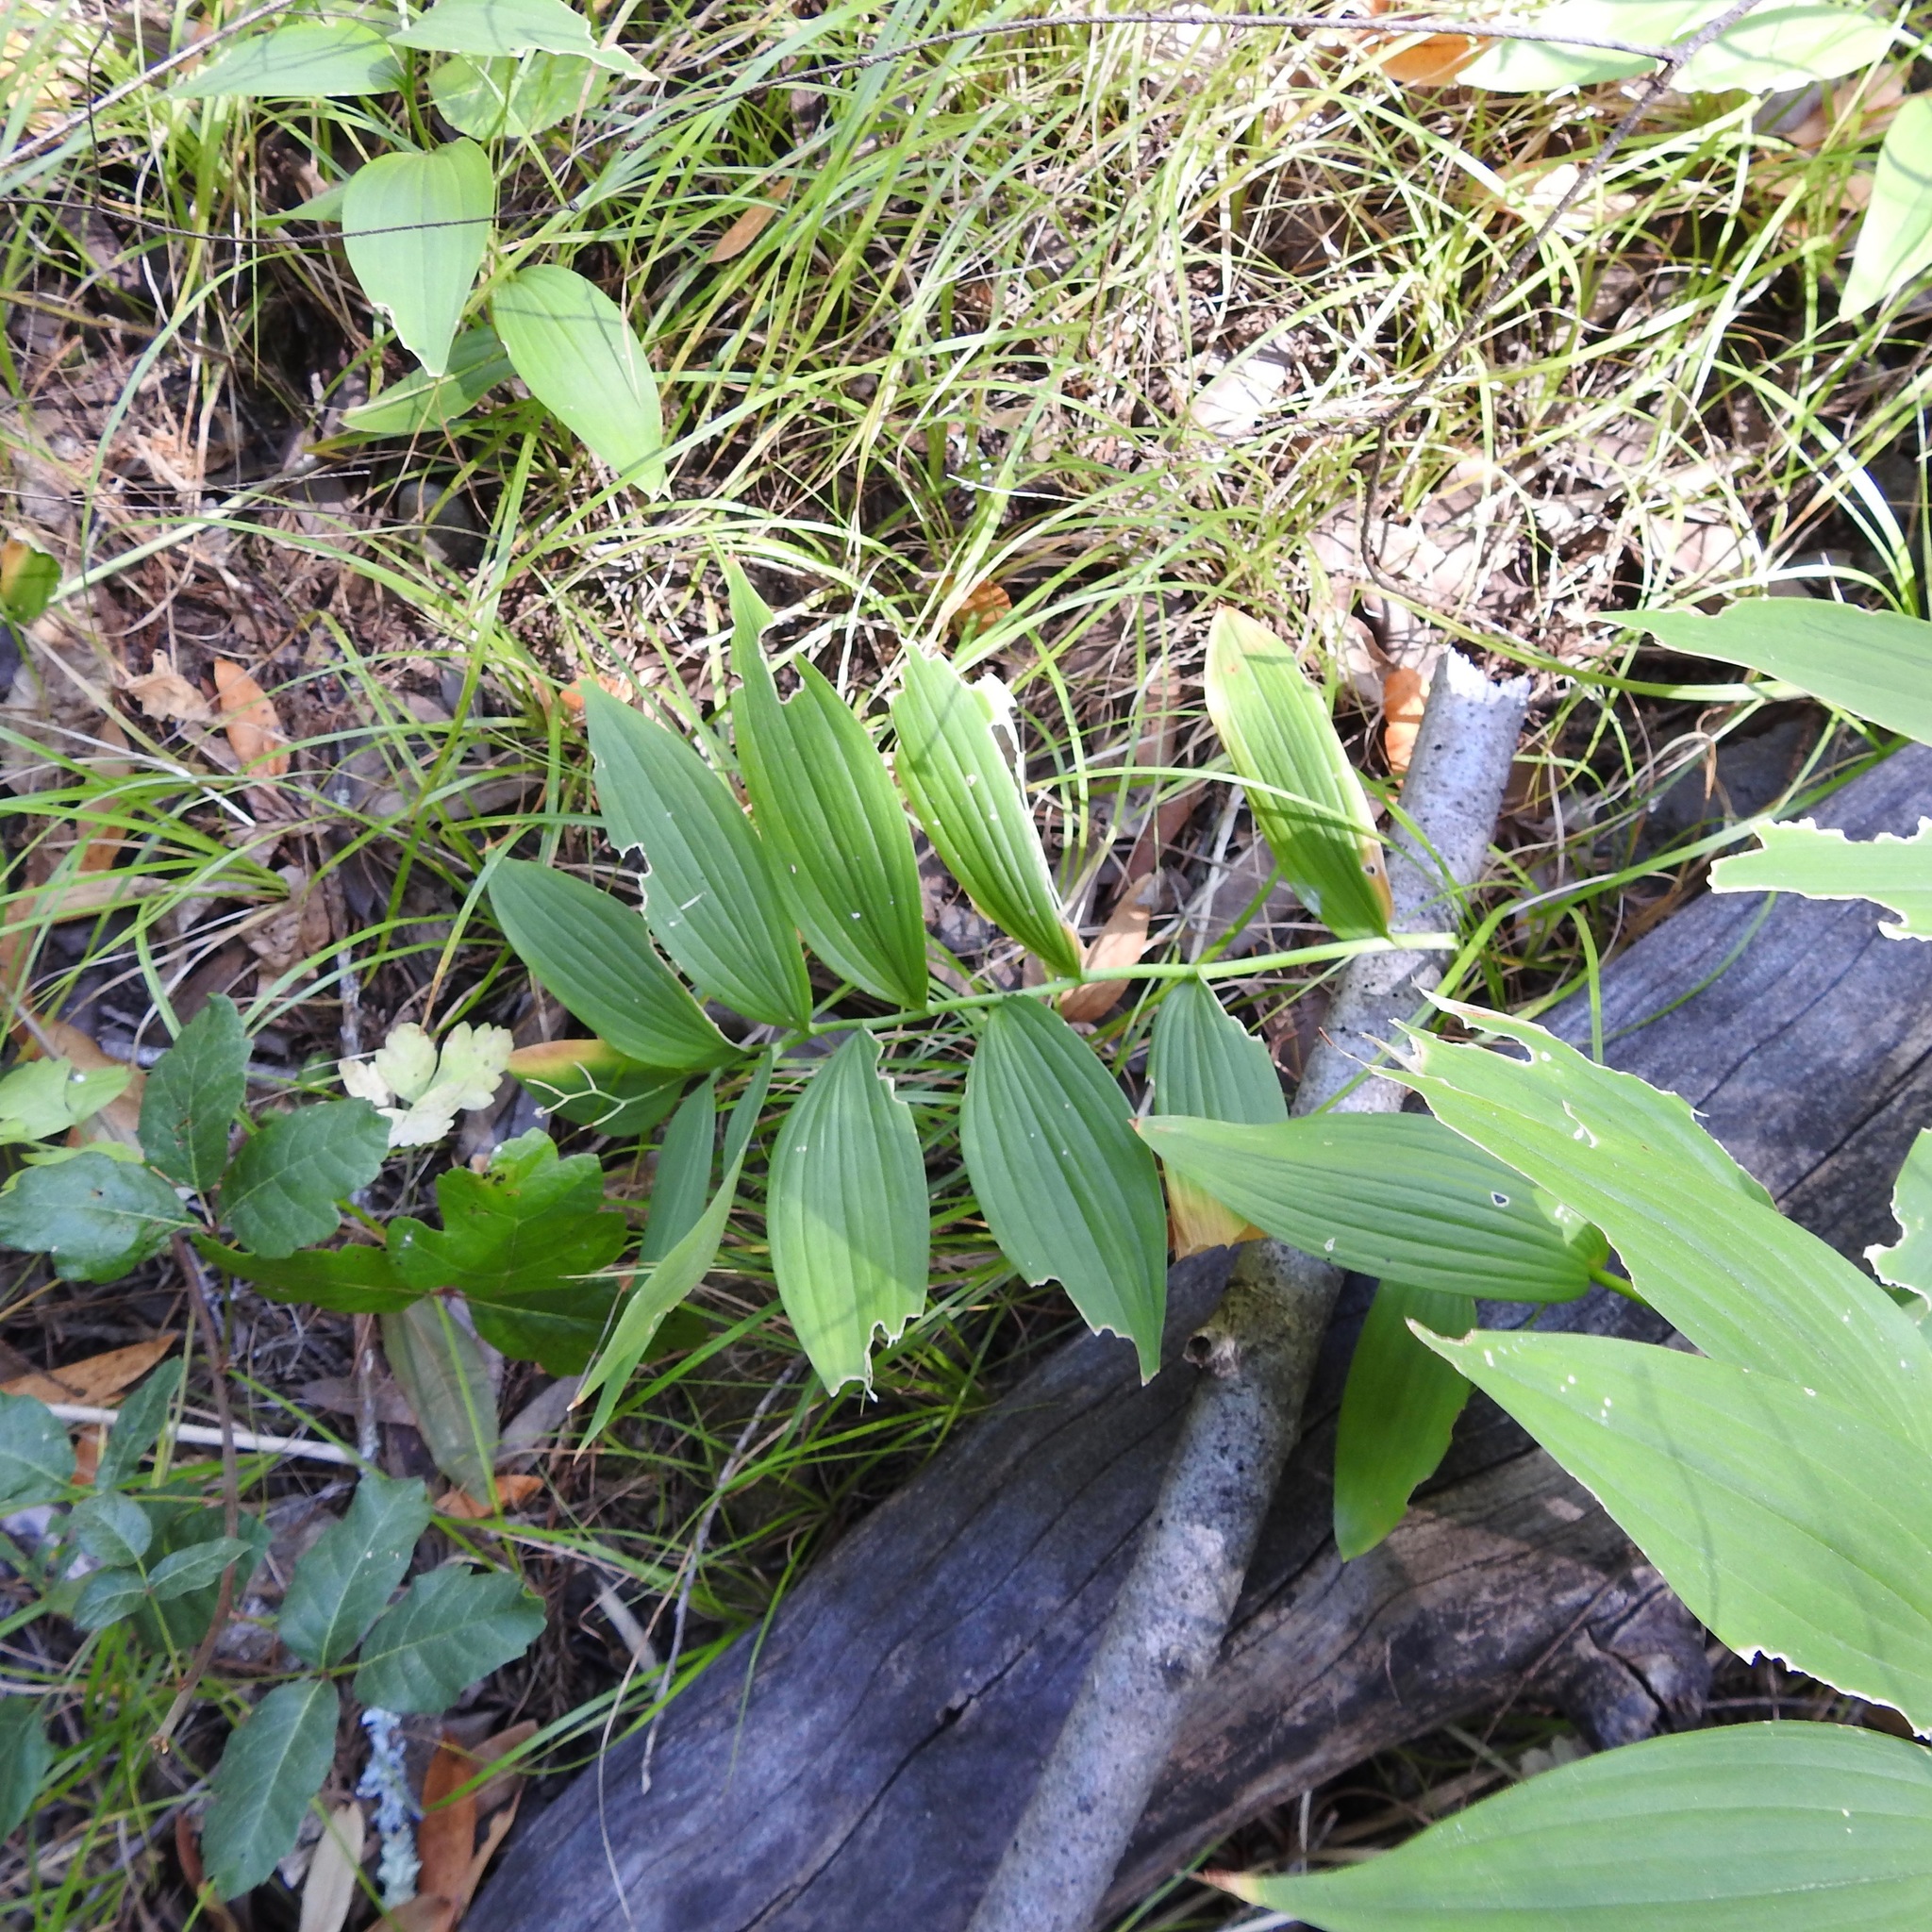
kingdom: Plantae
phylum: Tracheophyta
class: Liliopsida
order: Asparagales
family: Asparagaceae
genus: Maianthemum
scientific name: Maianthemum stellatum
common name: Little false solomon's seal
